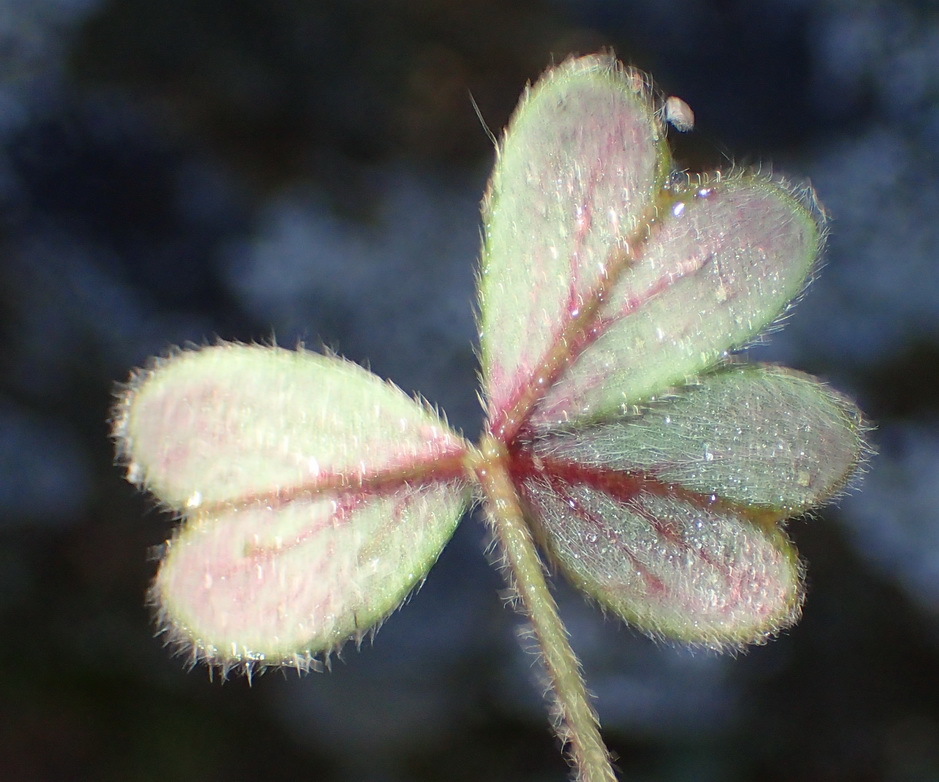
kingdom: Plantae
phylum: Tracheophyta
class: Magnoliopsida
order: Oxalidales
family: Oxalidaceae
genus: Oxalis
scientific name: Oxalis obtusa
